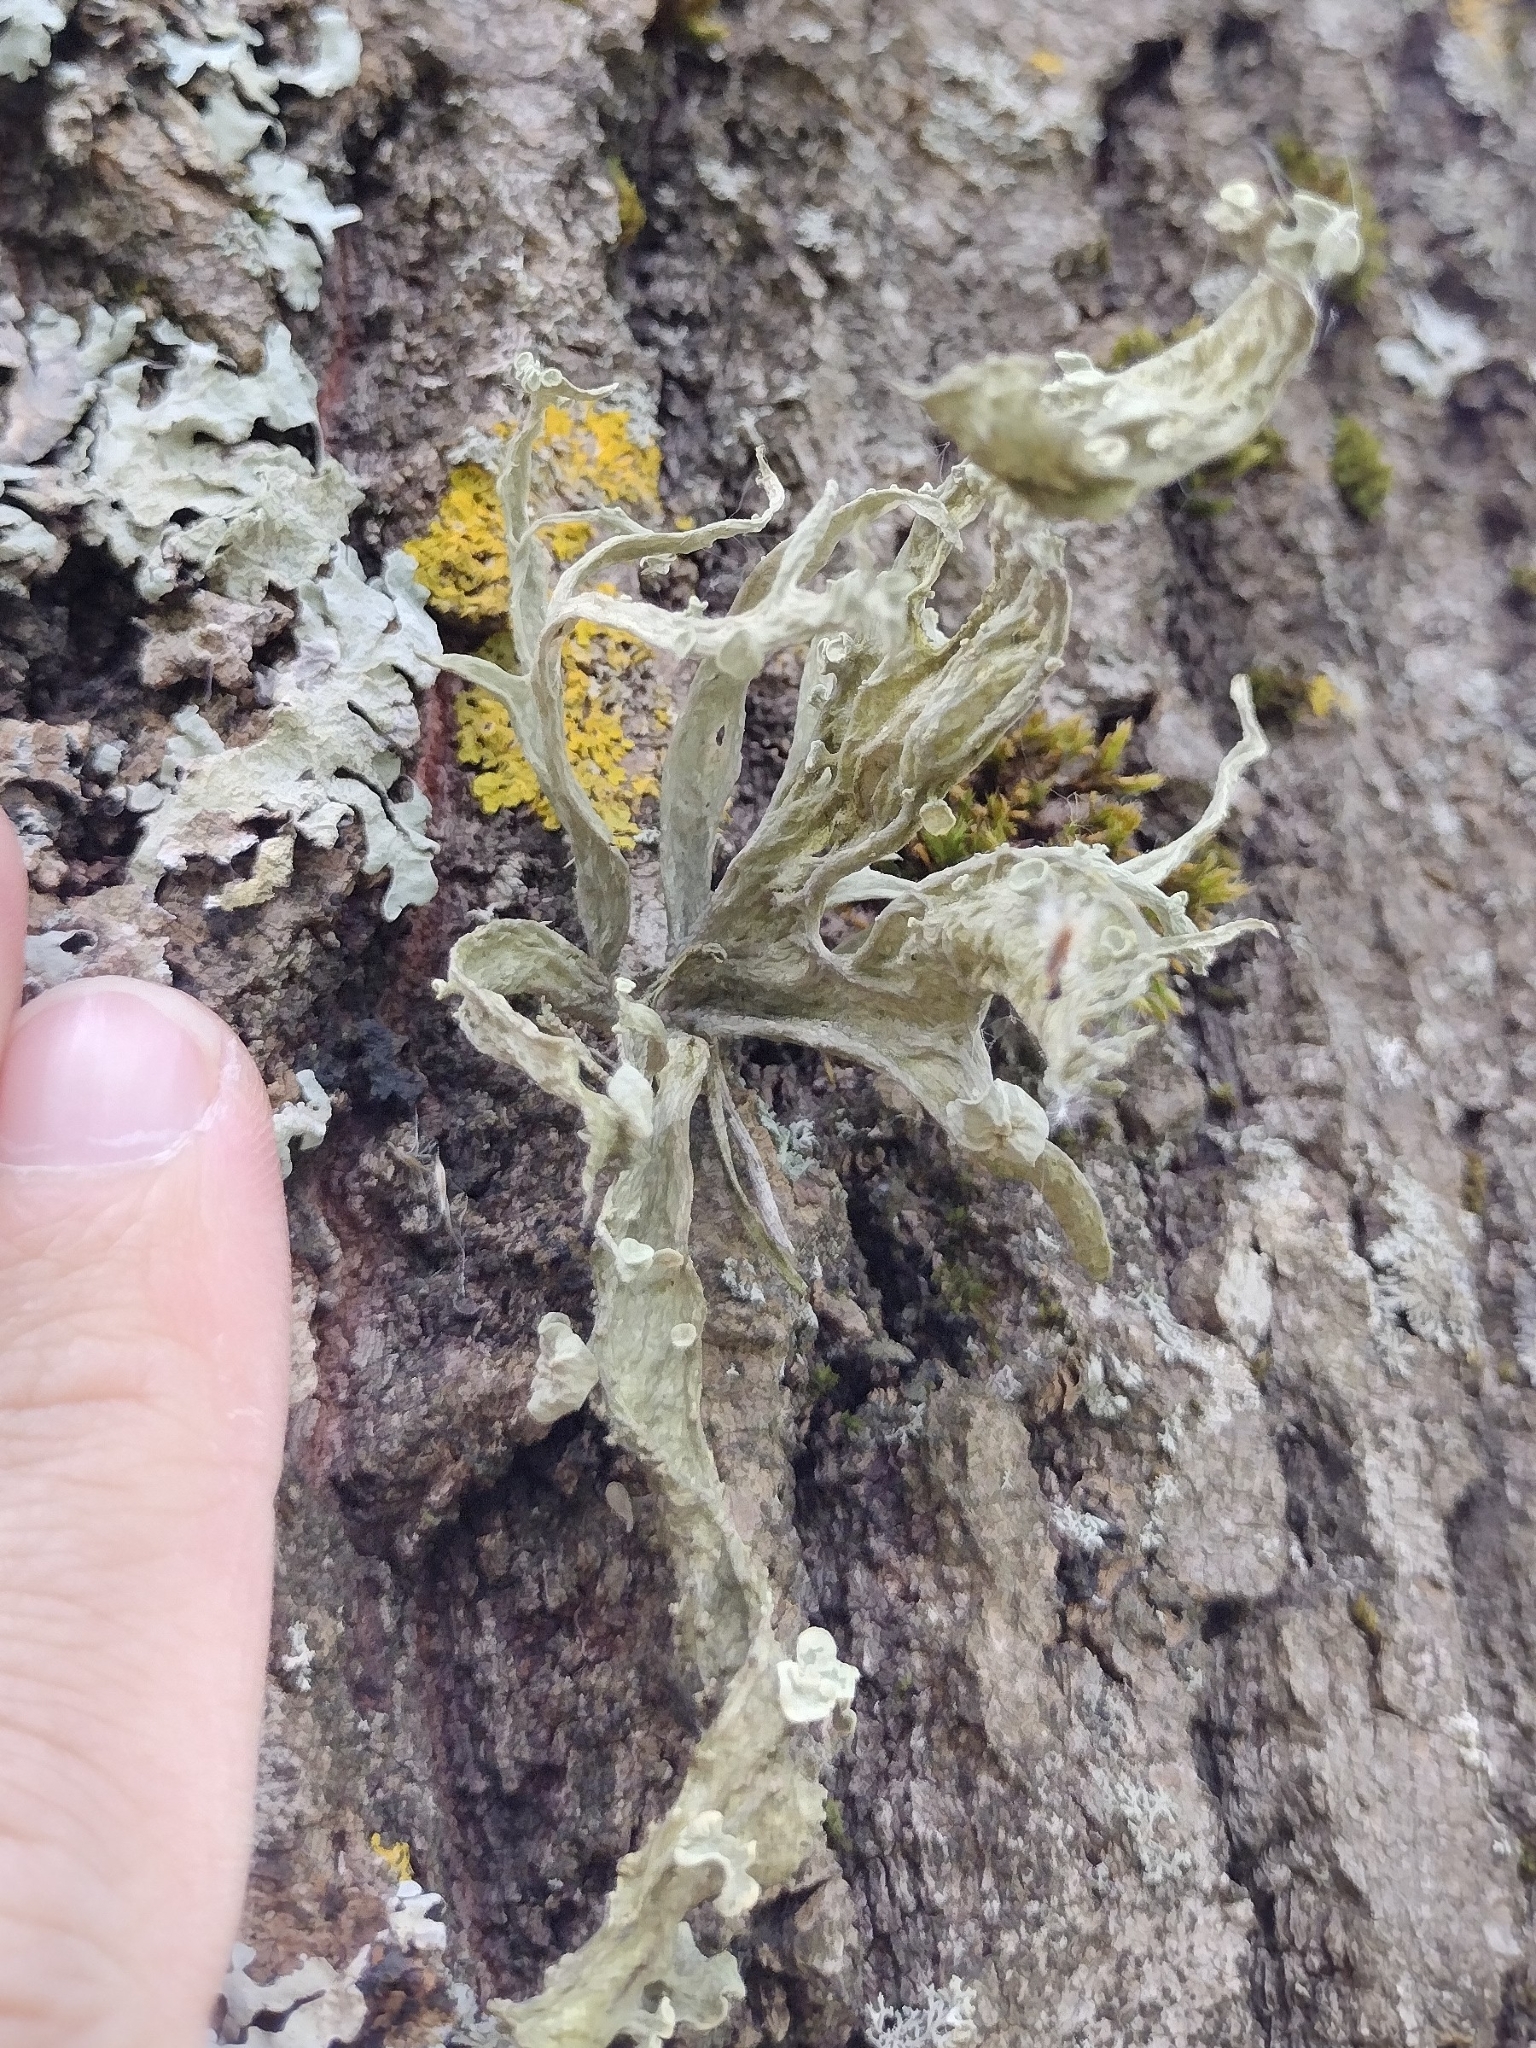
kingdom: Fungi
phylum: Ascomycota
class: Lecanoromycetes
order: Lecanorales
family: Ramalinaceae
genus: Ramalina
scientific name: Ramalina fraxinea
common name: Cartilage lichen
